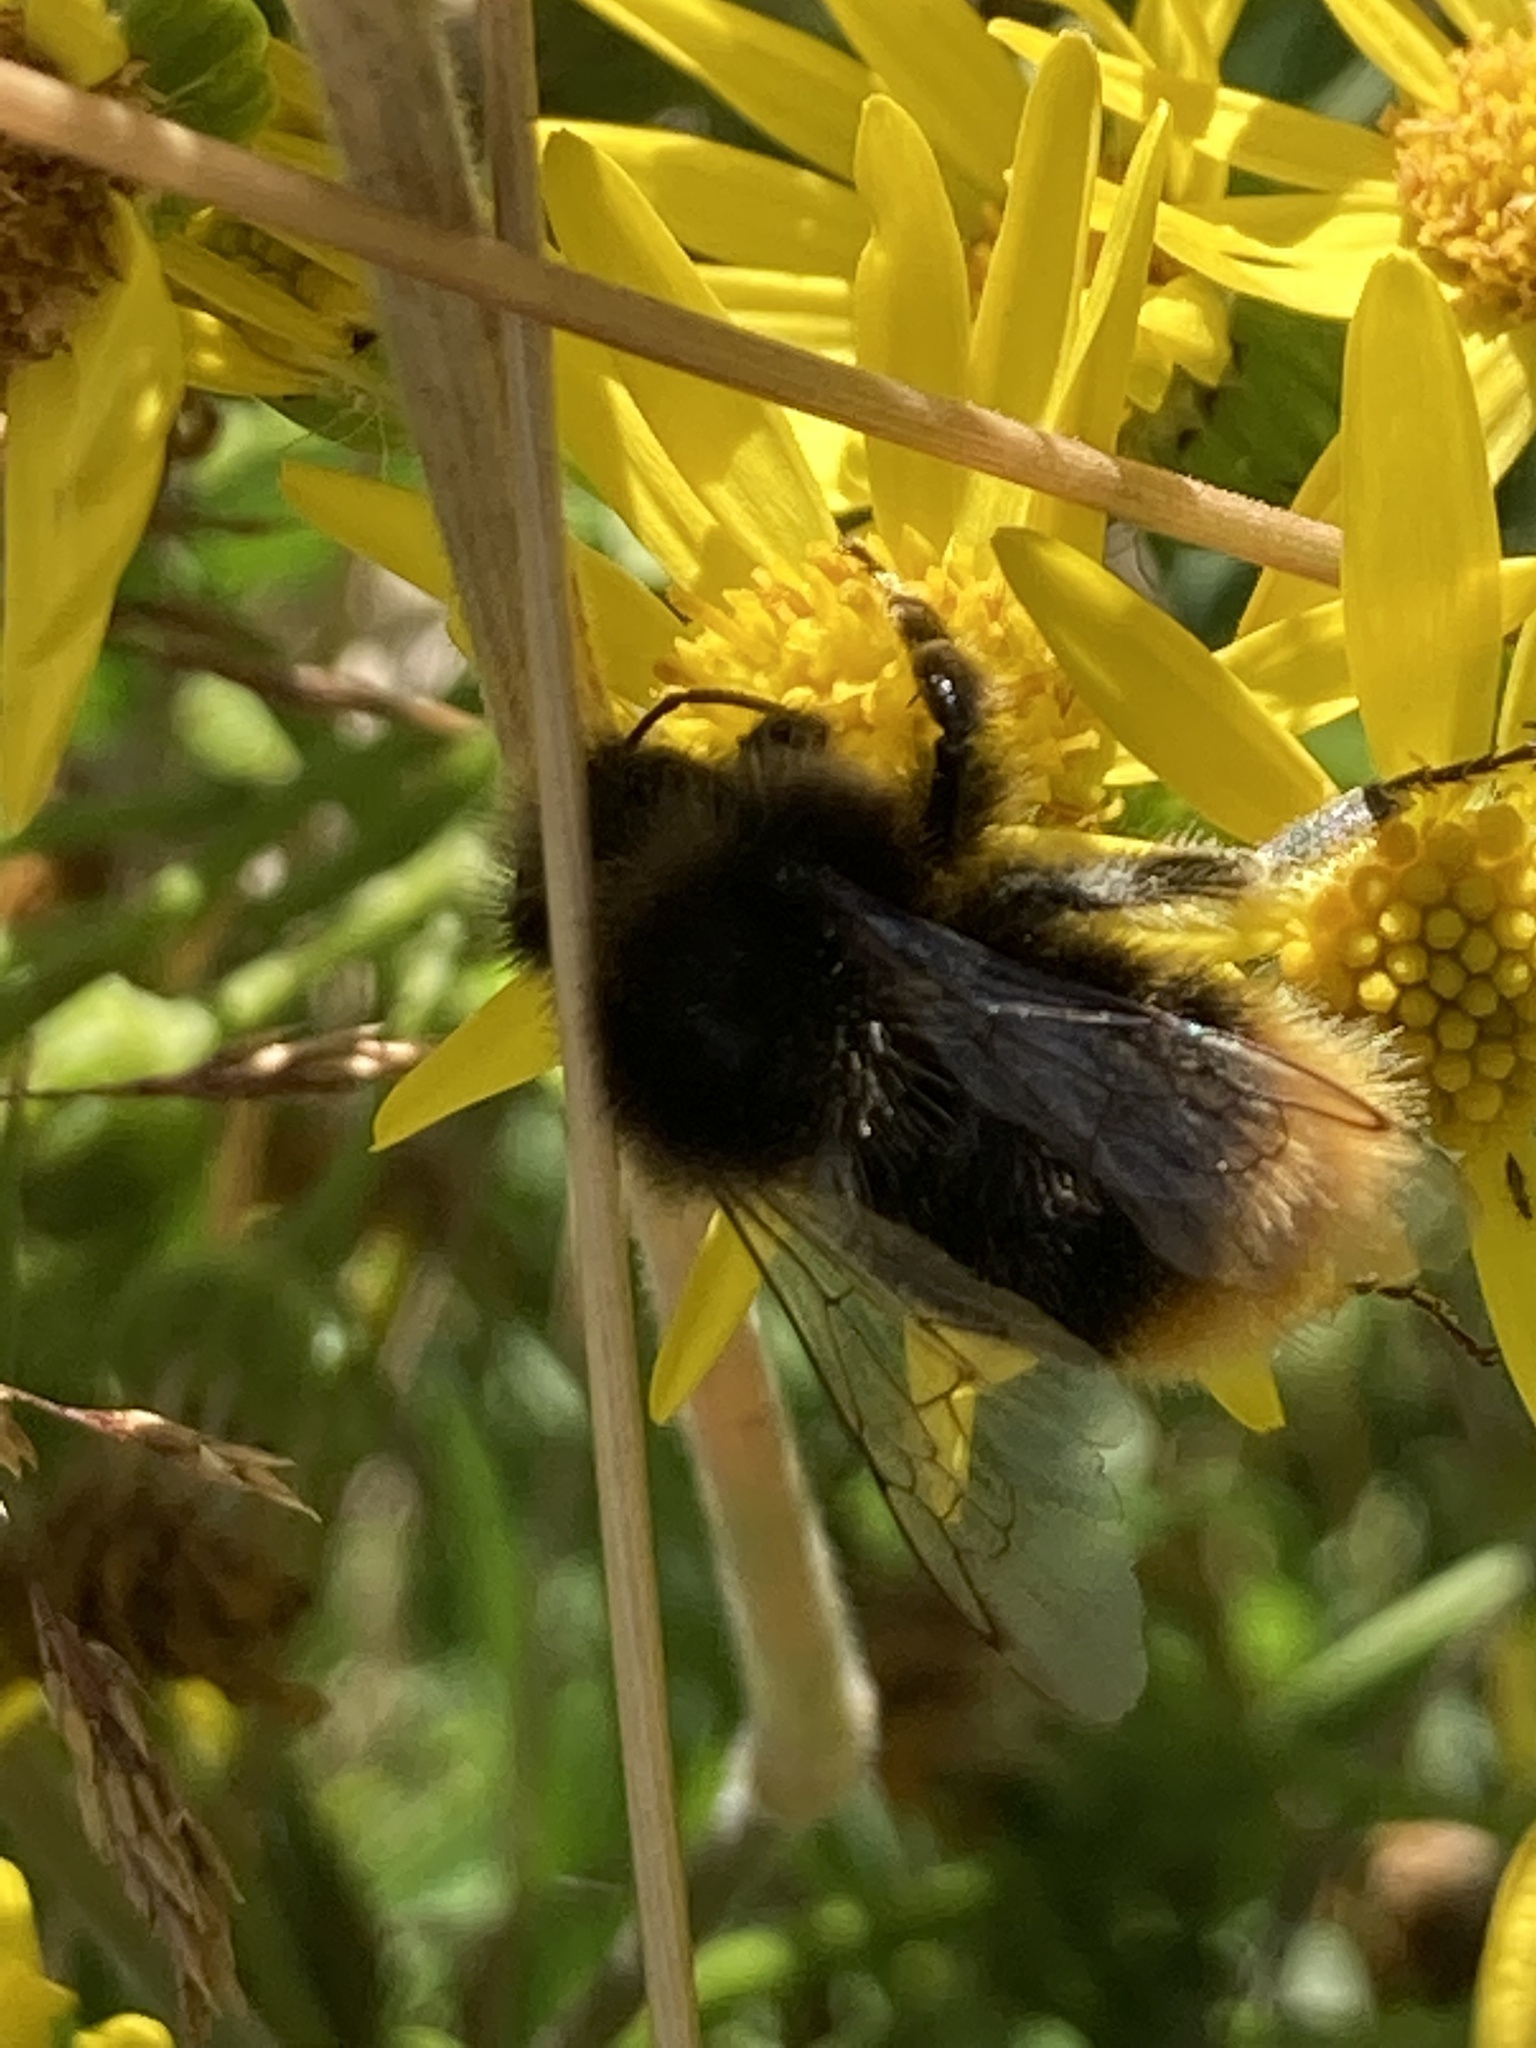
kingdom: Animalia
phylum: Arthropoda
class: Insecta
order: Hymenoptera
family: Apidae
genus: Bombus
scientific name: Bombus lapidarius
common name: Large red-tailed humble-bee
